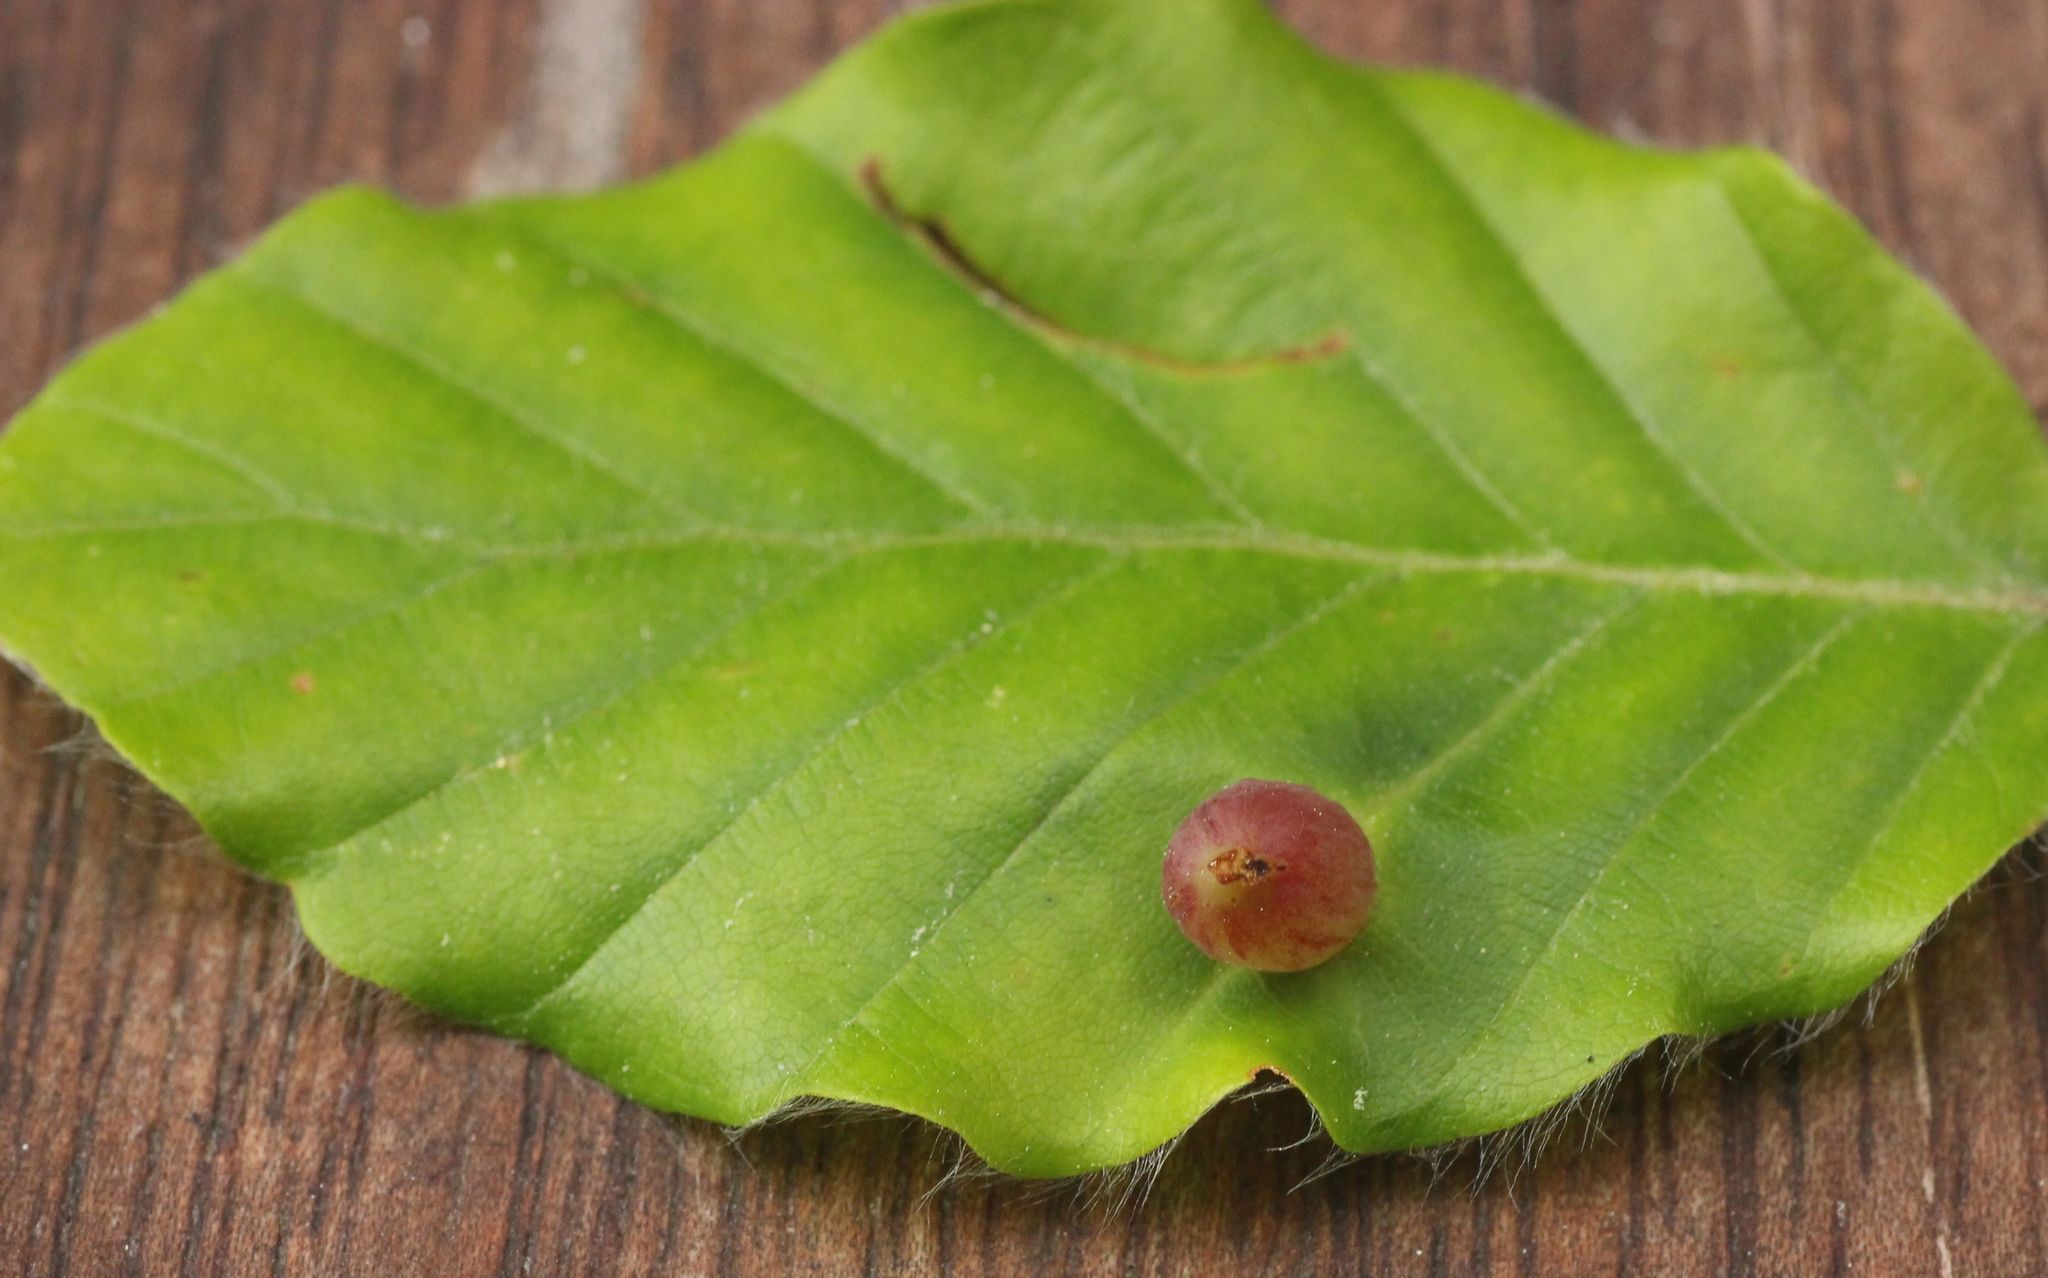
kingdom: Animalia
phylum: Arthropoda
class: Insecta
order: Diptera
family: Cecidomyiidae
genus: Mikiola
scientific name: Mikiola fagi
